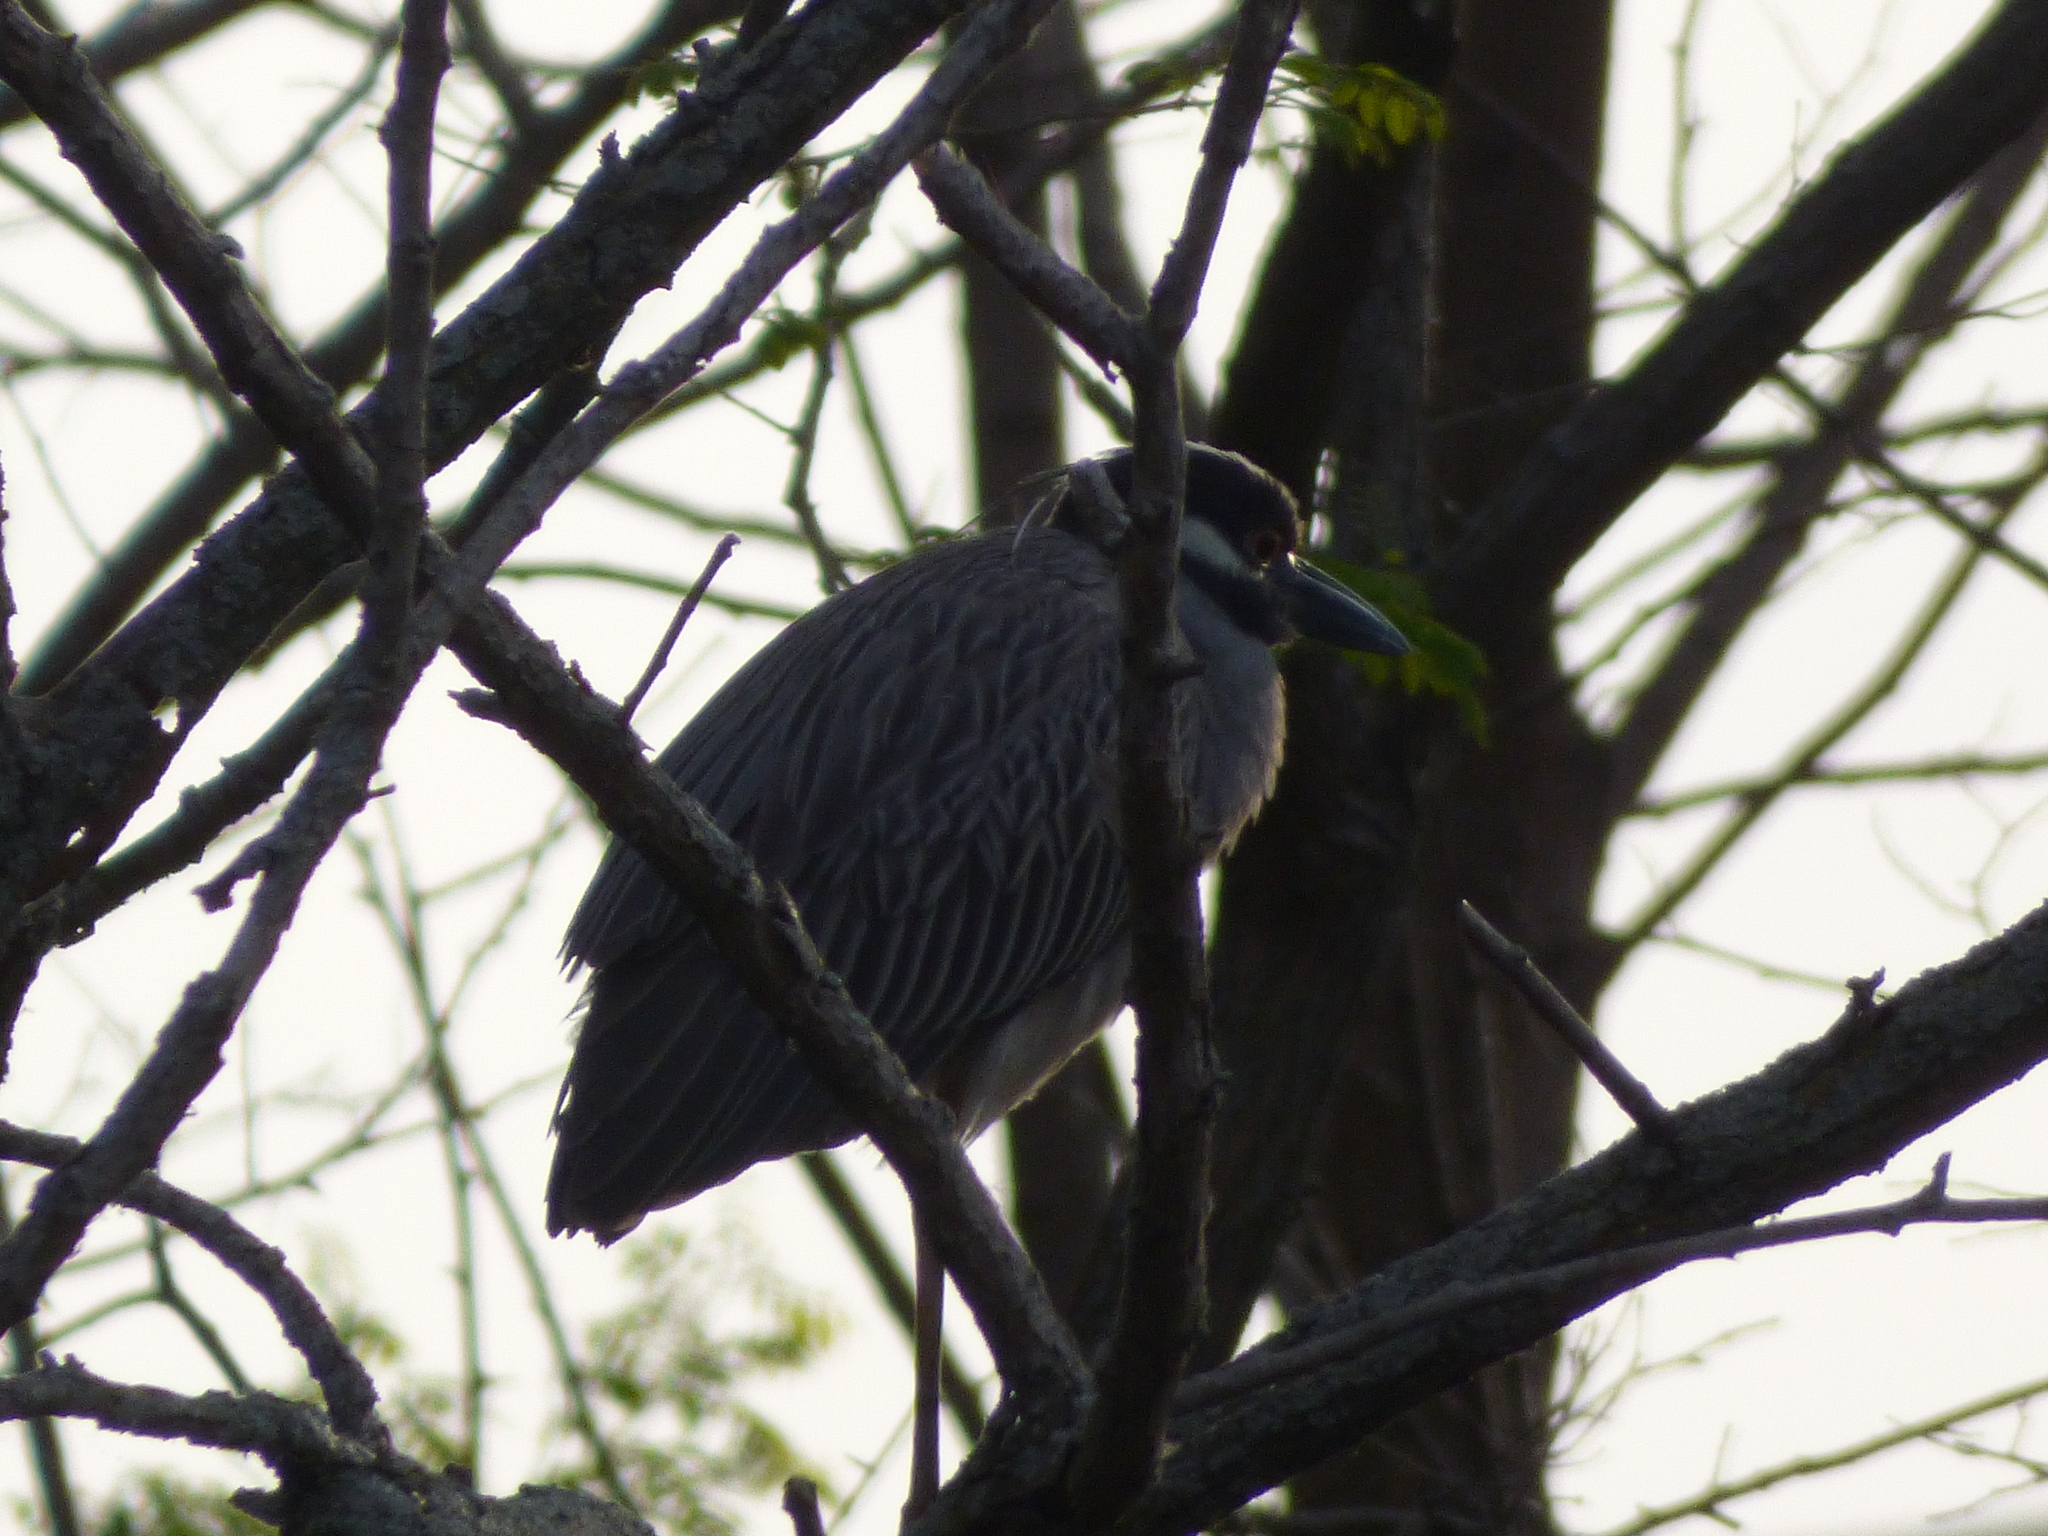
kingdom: Animalia
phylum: Chordata
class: Aves
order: Pelecaniformes
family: Ardeidae
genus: Nyctanassa
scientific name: Nyctanassa violacea
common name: Yellow-crowned night heron
